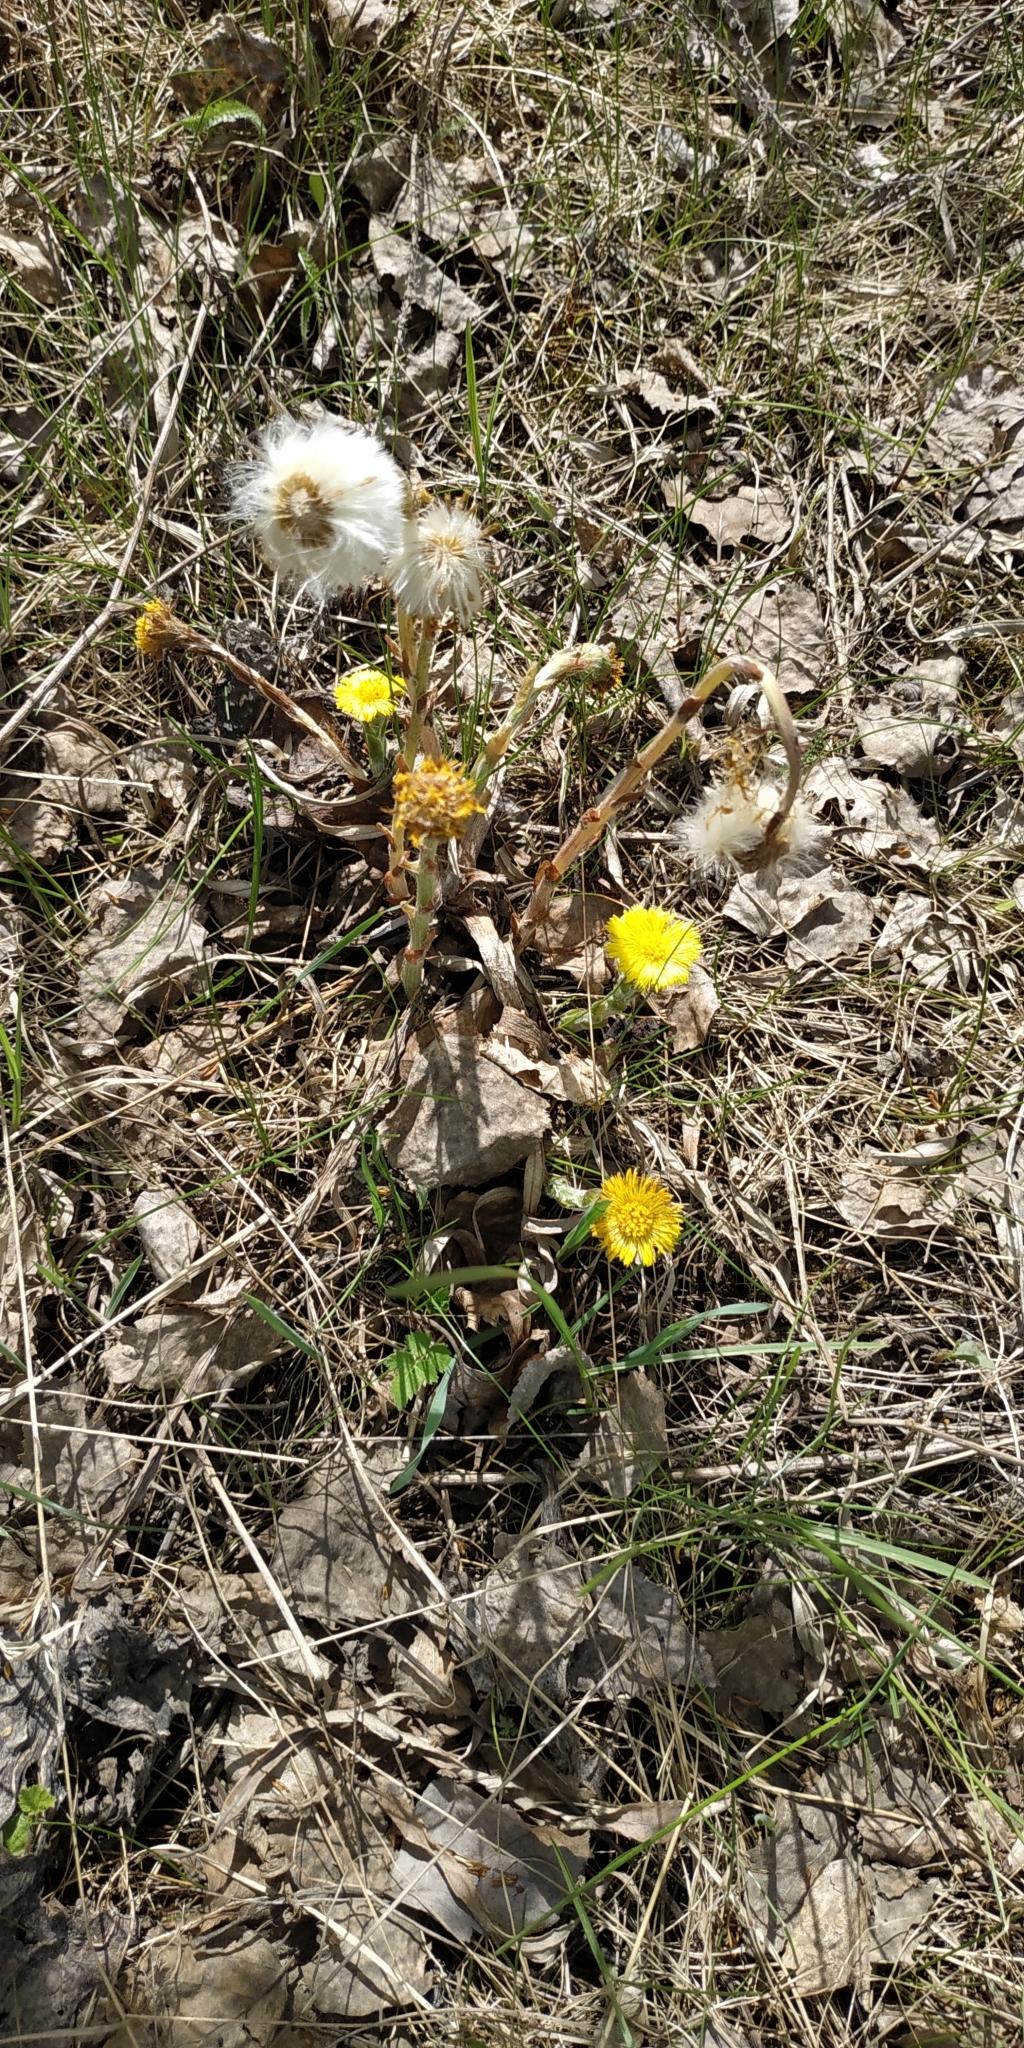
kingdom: Plantae
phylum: Tracheophyta
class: Magnoliopsida
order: Asterales
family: Asteraceae
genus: Tussilago
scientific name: Tussilago farfara
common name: Coltsfoot
